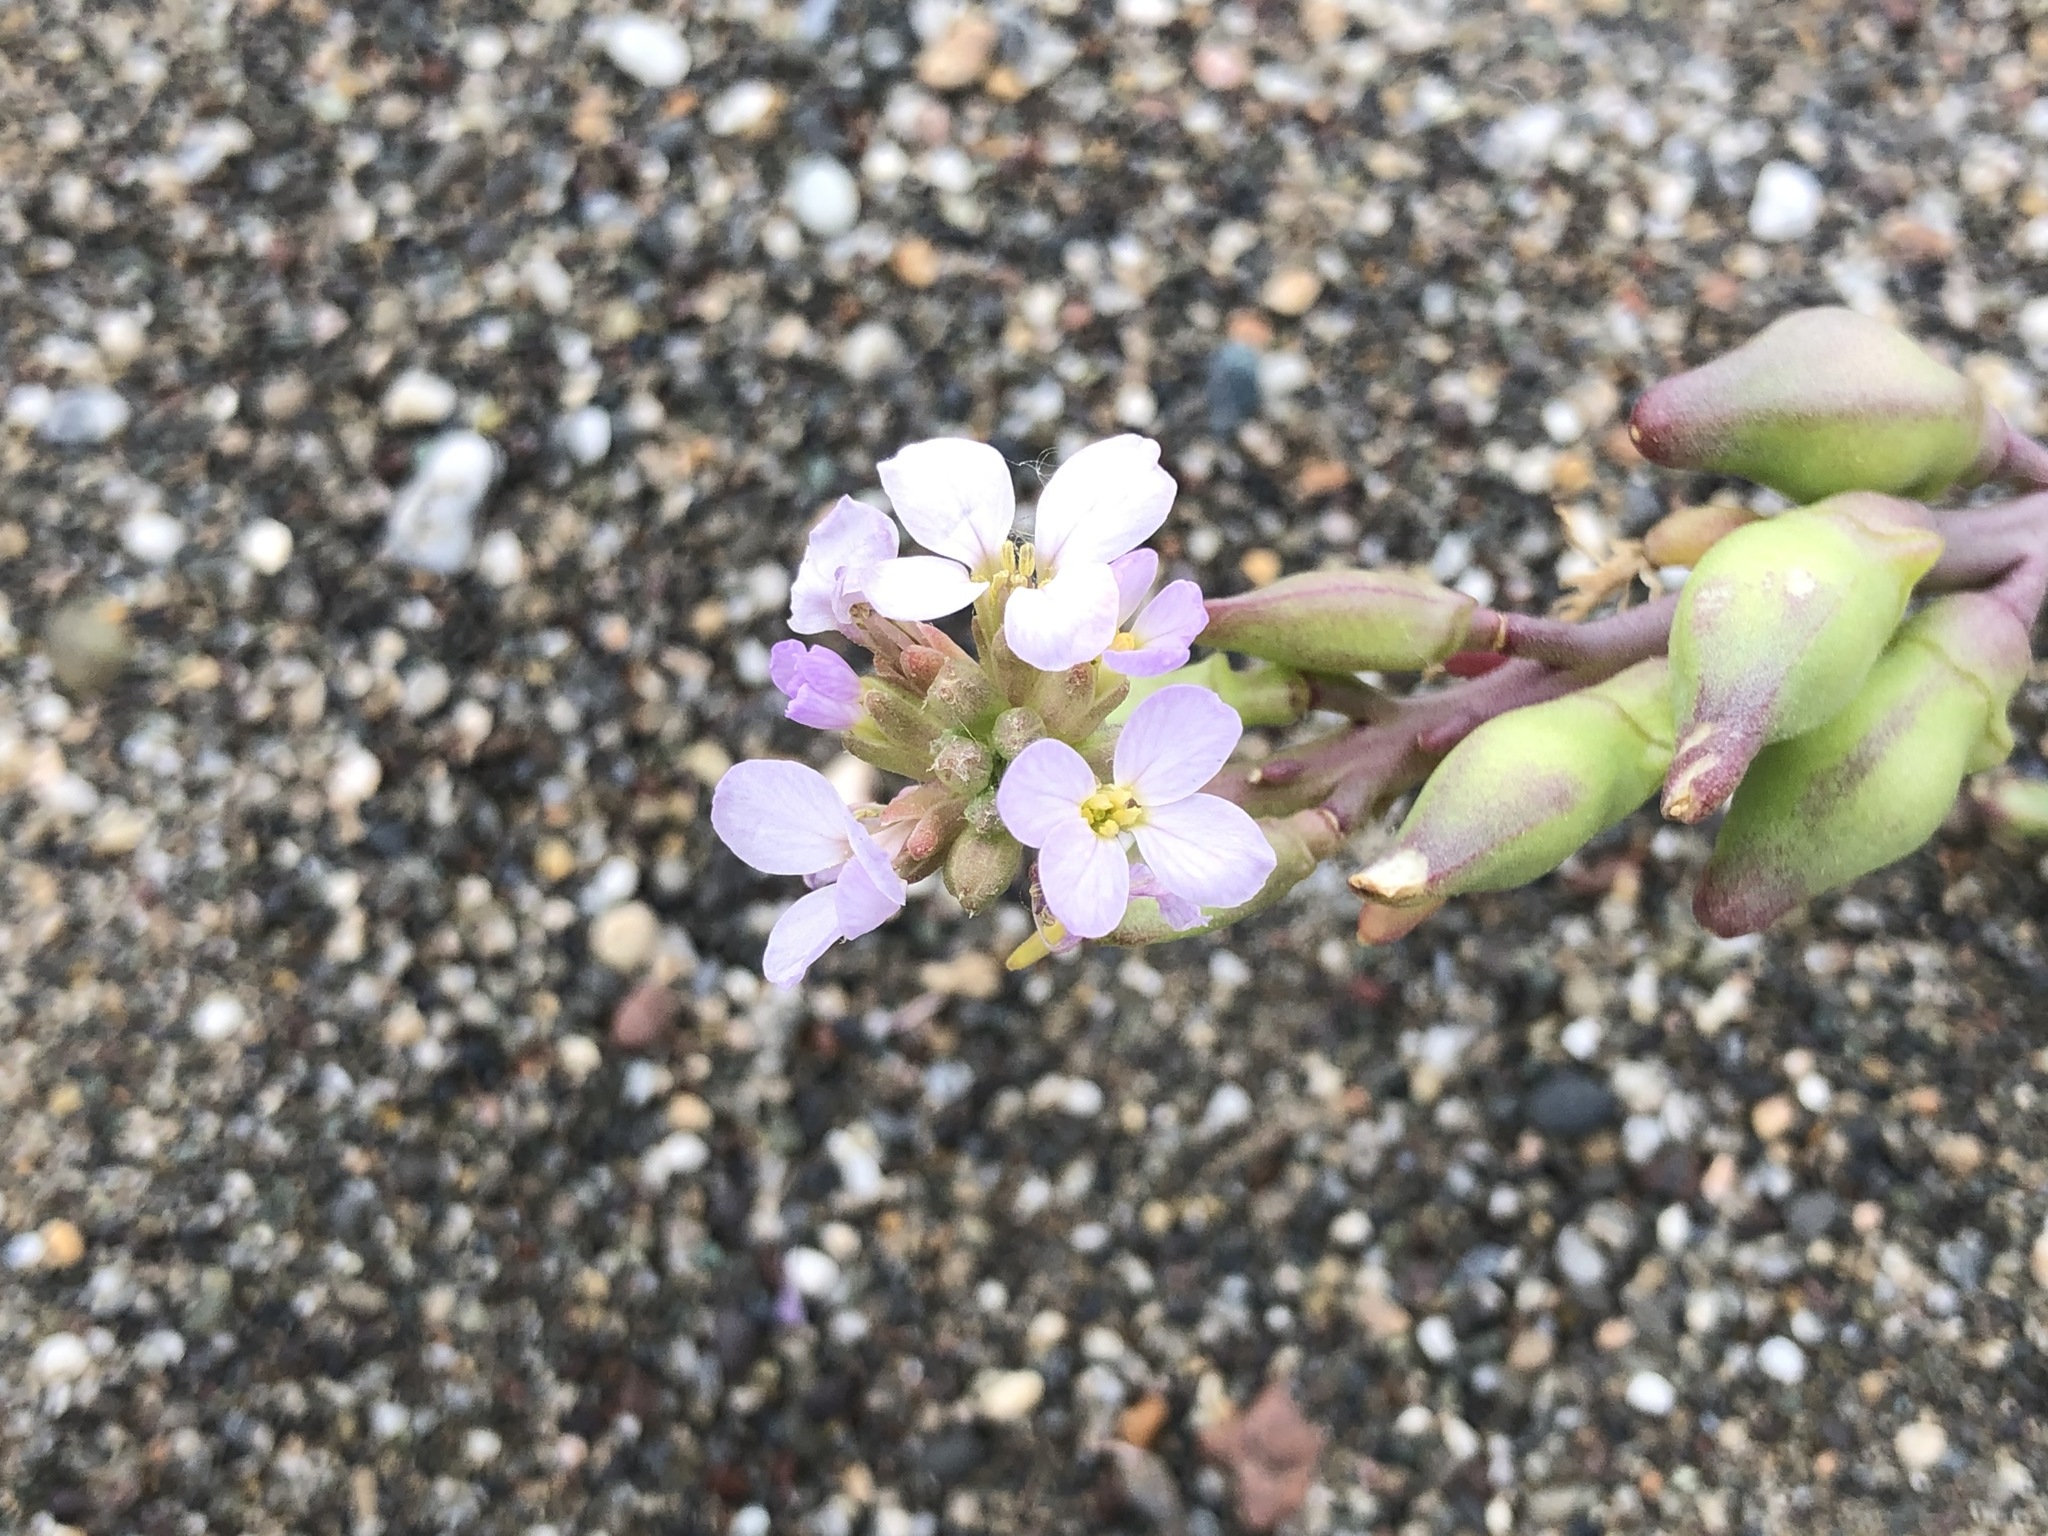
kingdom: Plantae
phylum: Tracheophyta
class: Magnoliopsida
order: Brassicales
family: Brassicaceae
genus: Cakile
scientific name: Cakile maritima
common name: Sea rocket
